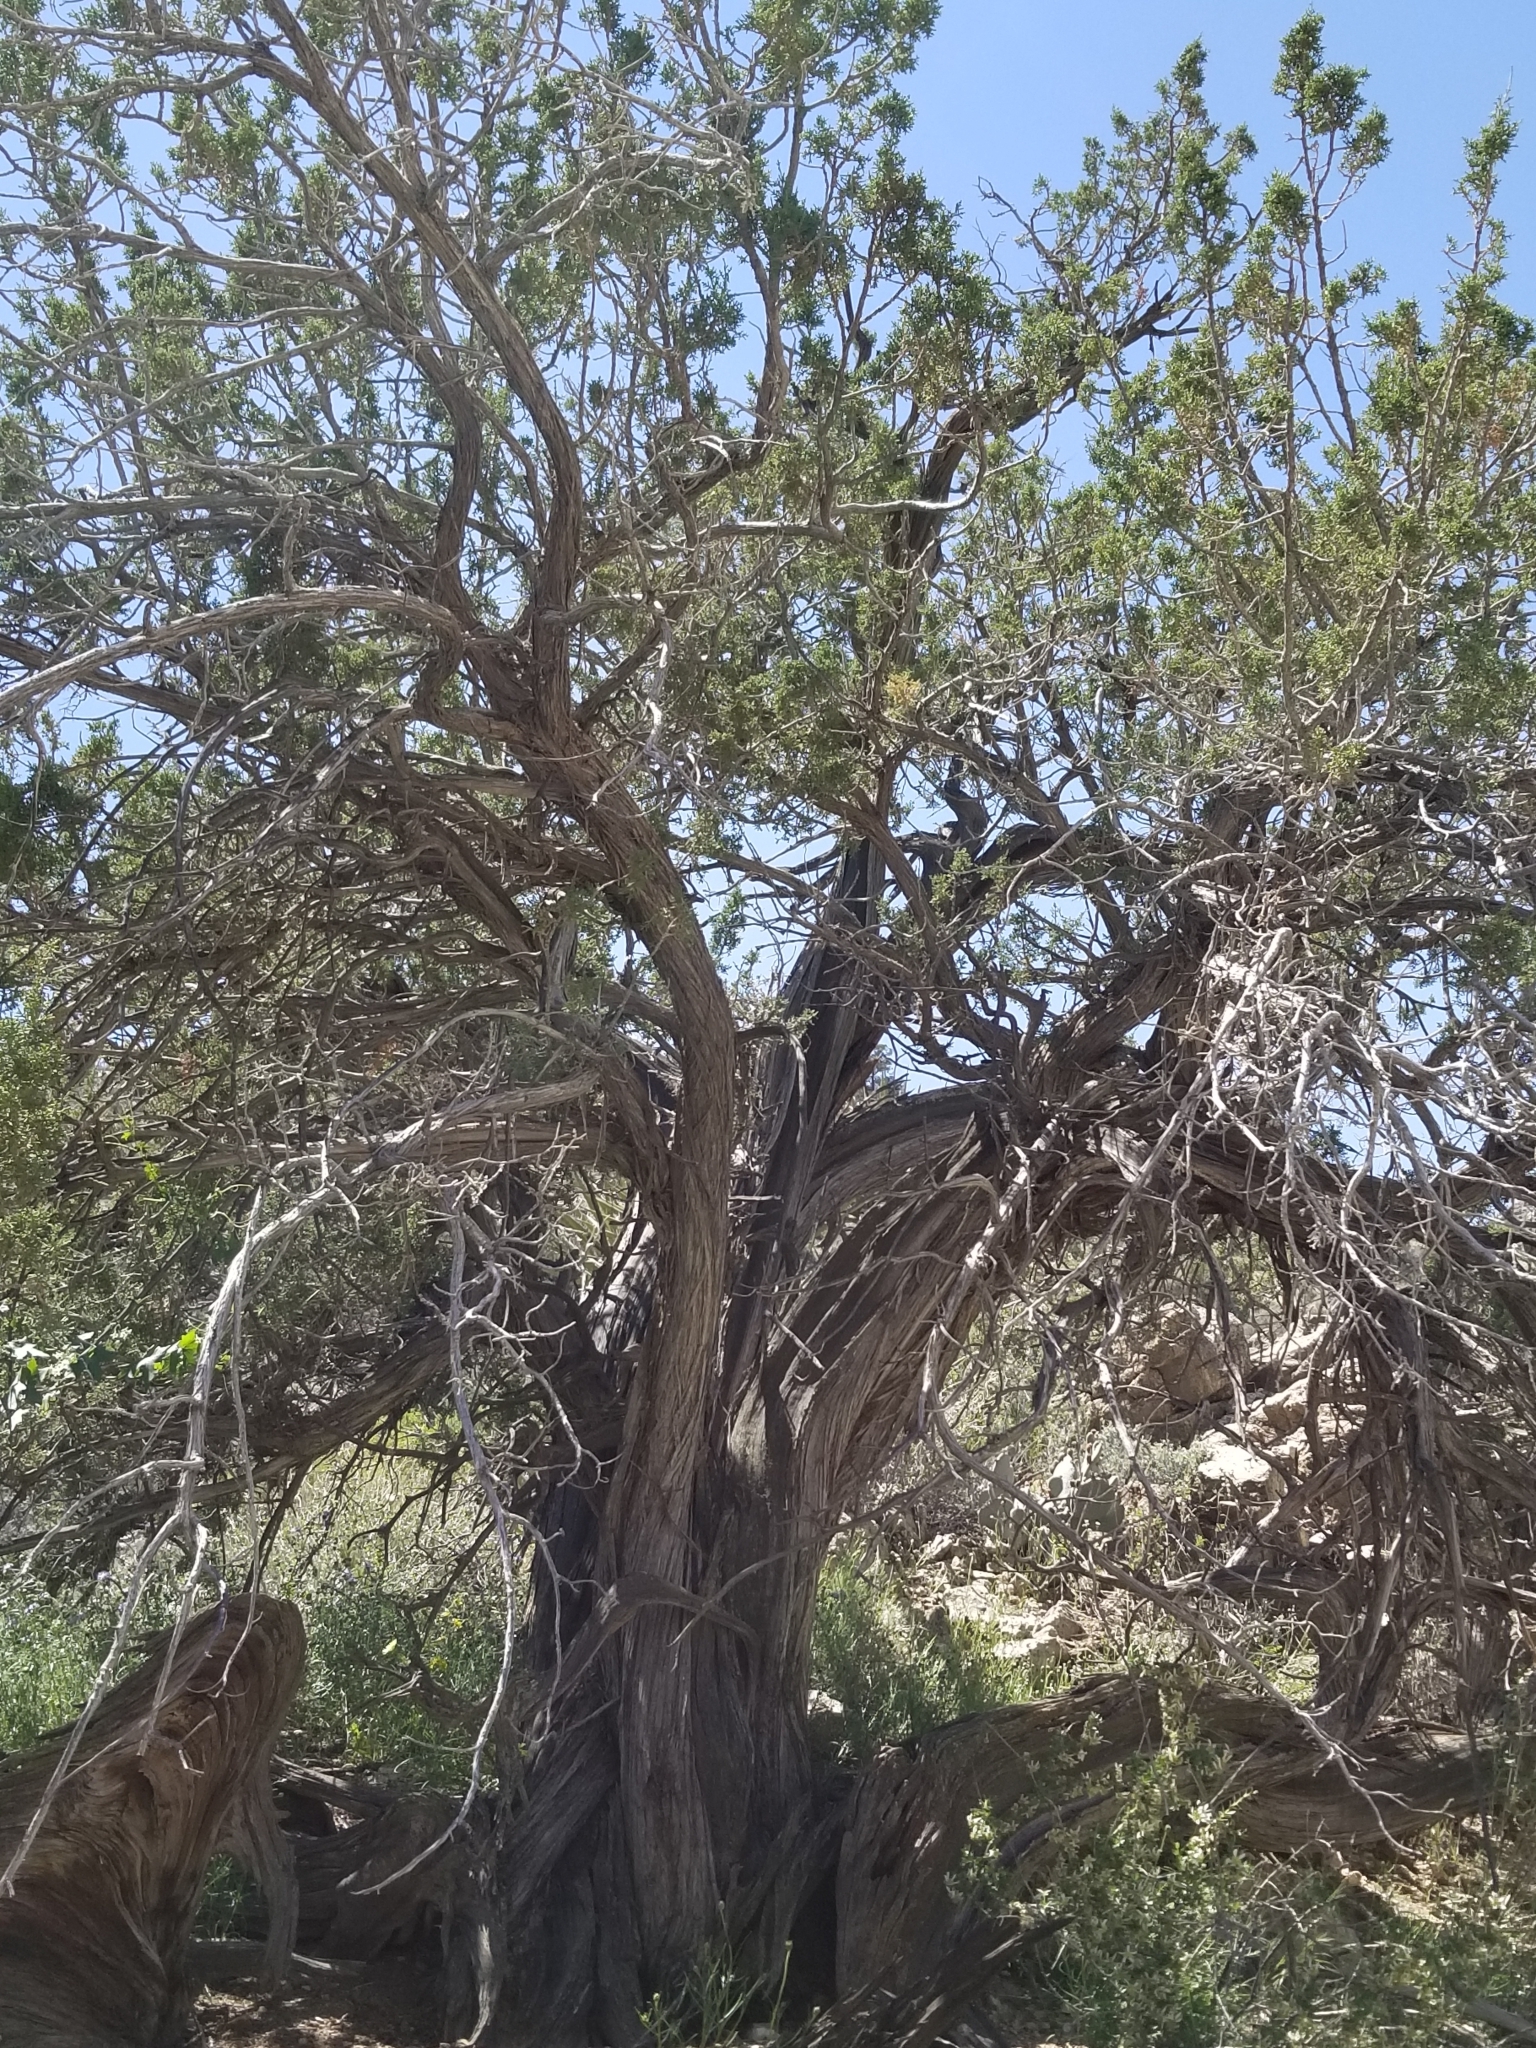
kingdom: Plantae
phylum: Tracheophyta
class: Pinopsida
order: Pinales
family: Cupressaceae
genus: Juniperus
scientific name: Juniperus californica
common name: California juniper
